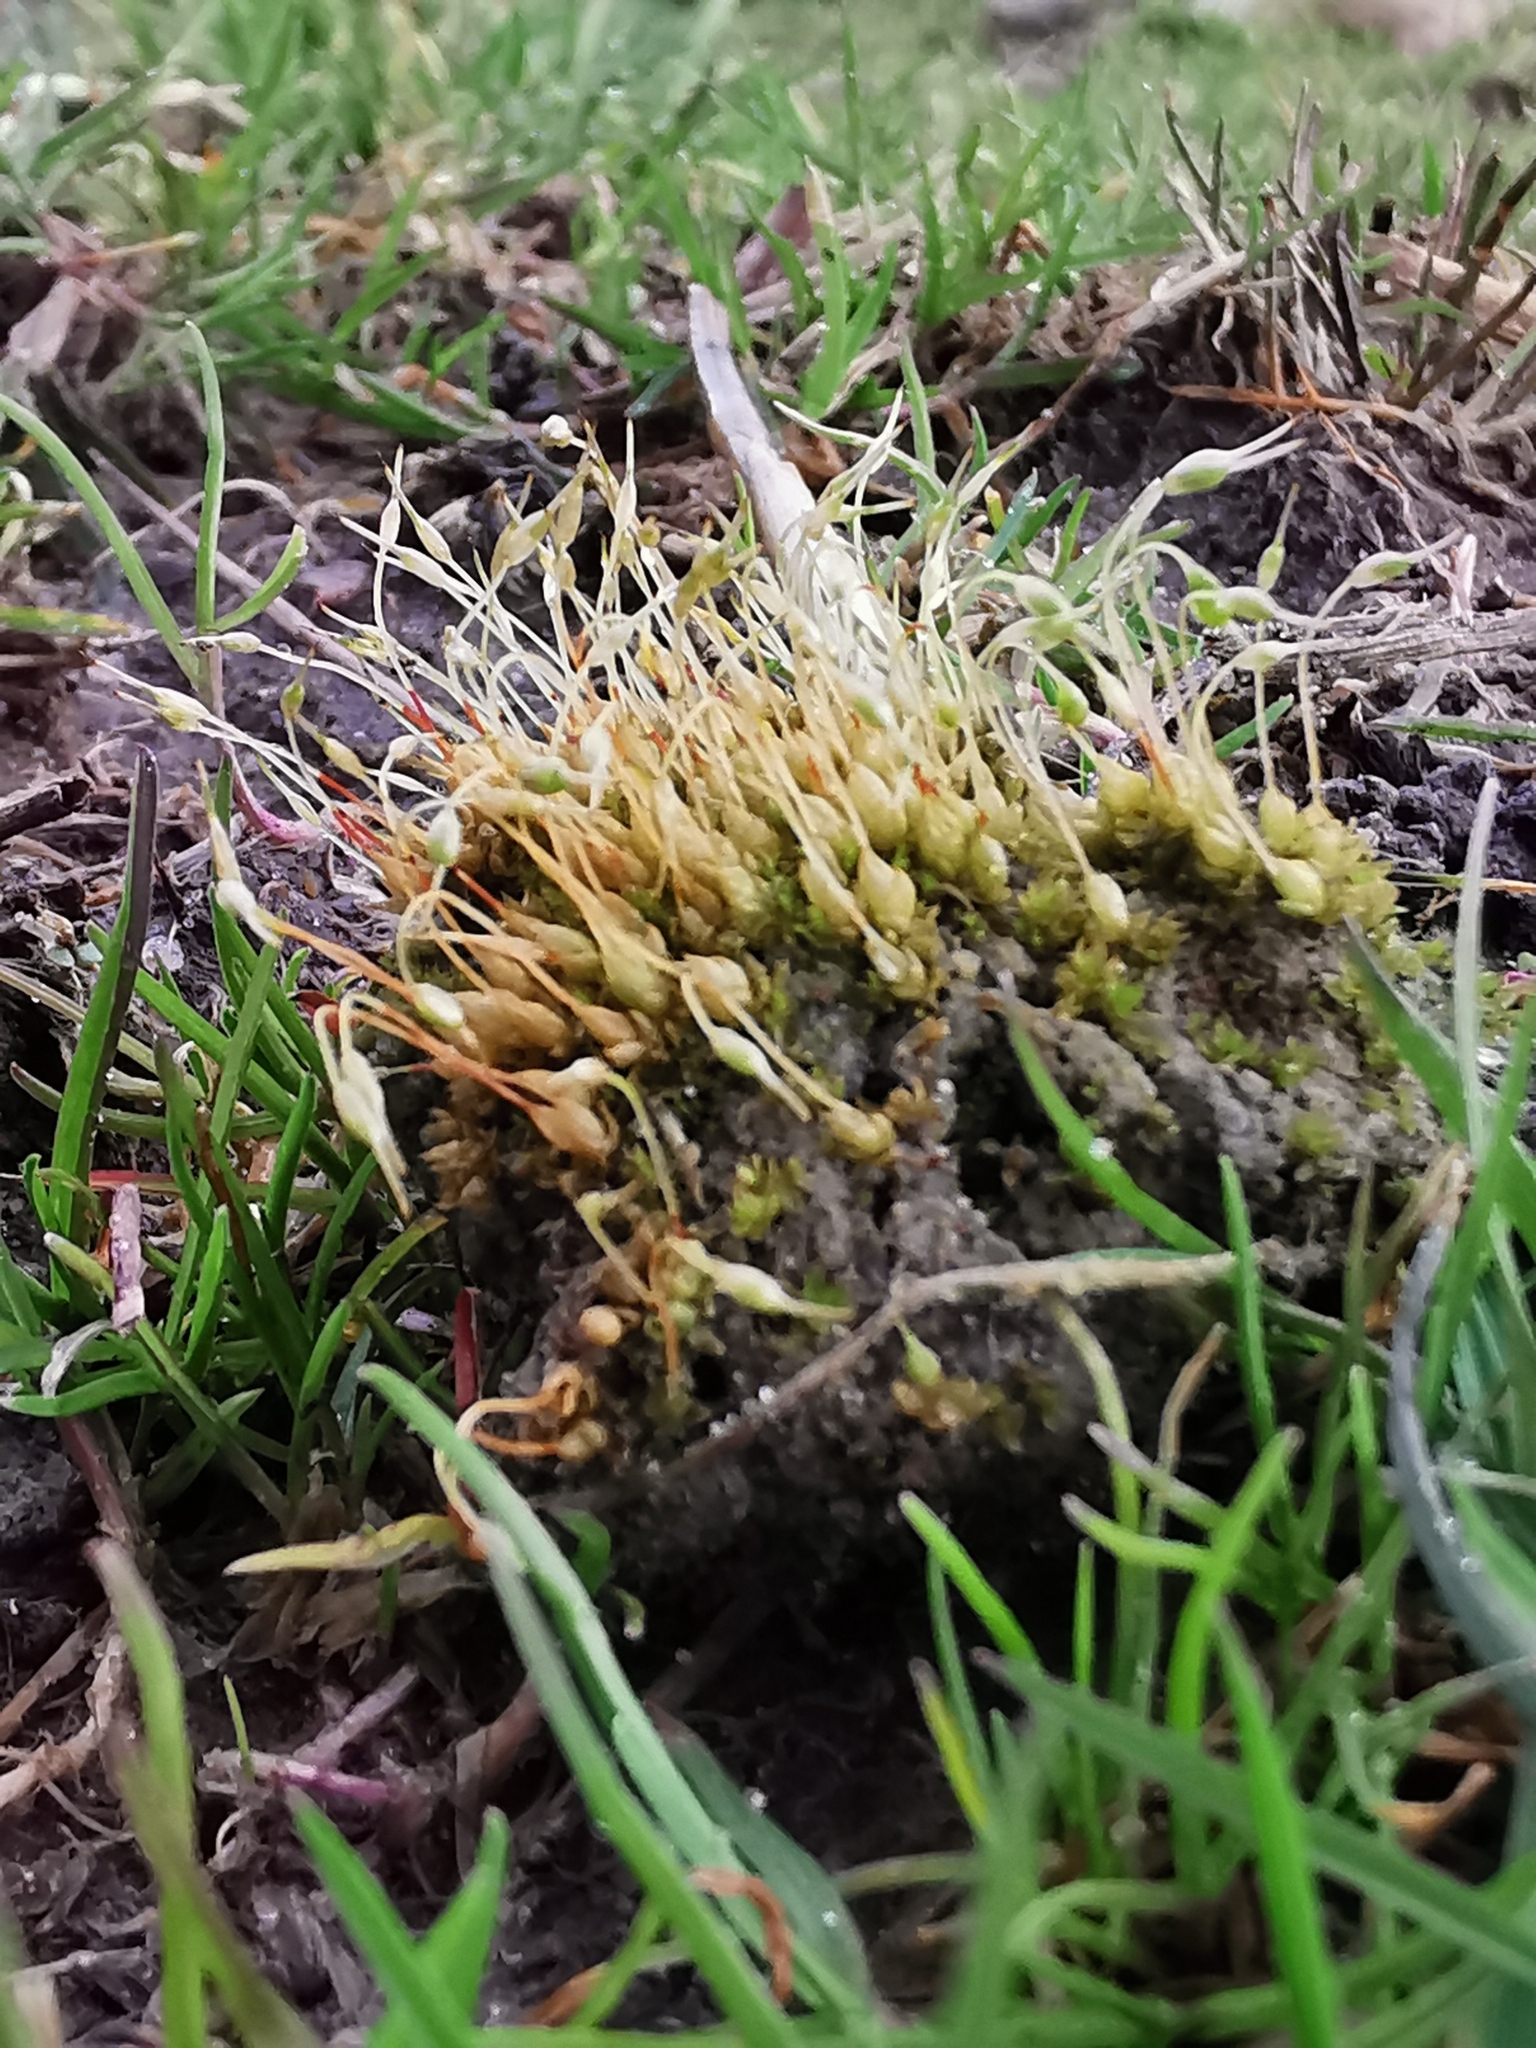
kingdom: Plantae
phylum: Bryophyta
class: Bryopsida
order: Funariales
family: Funariaceae
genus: Funaria
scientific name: Funaria hygrometrica
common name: Common cord moss
